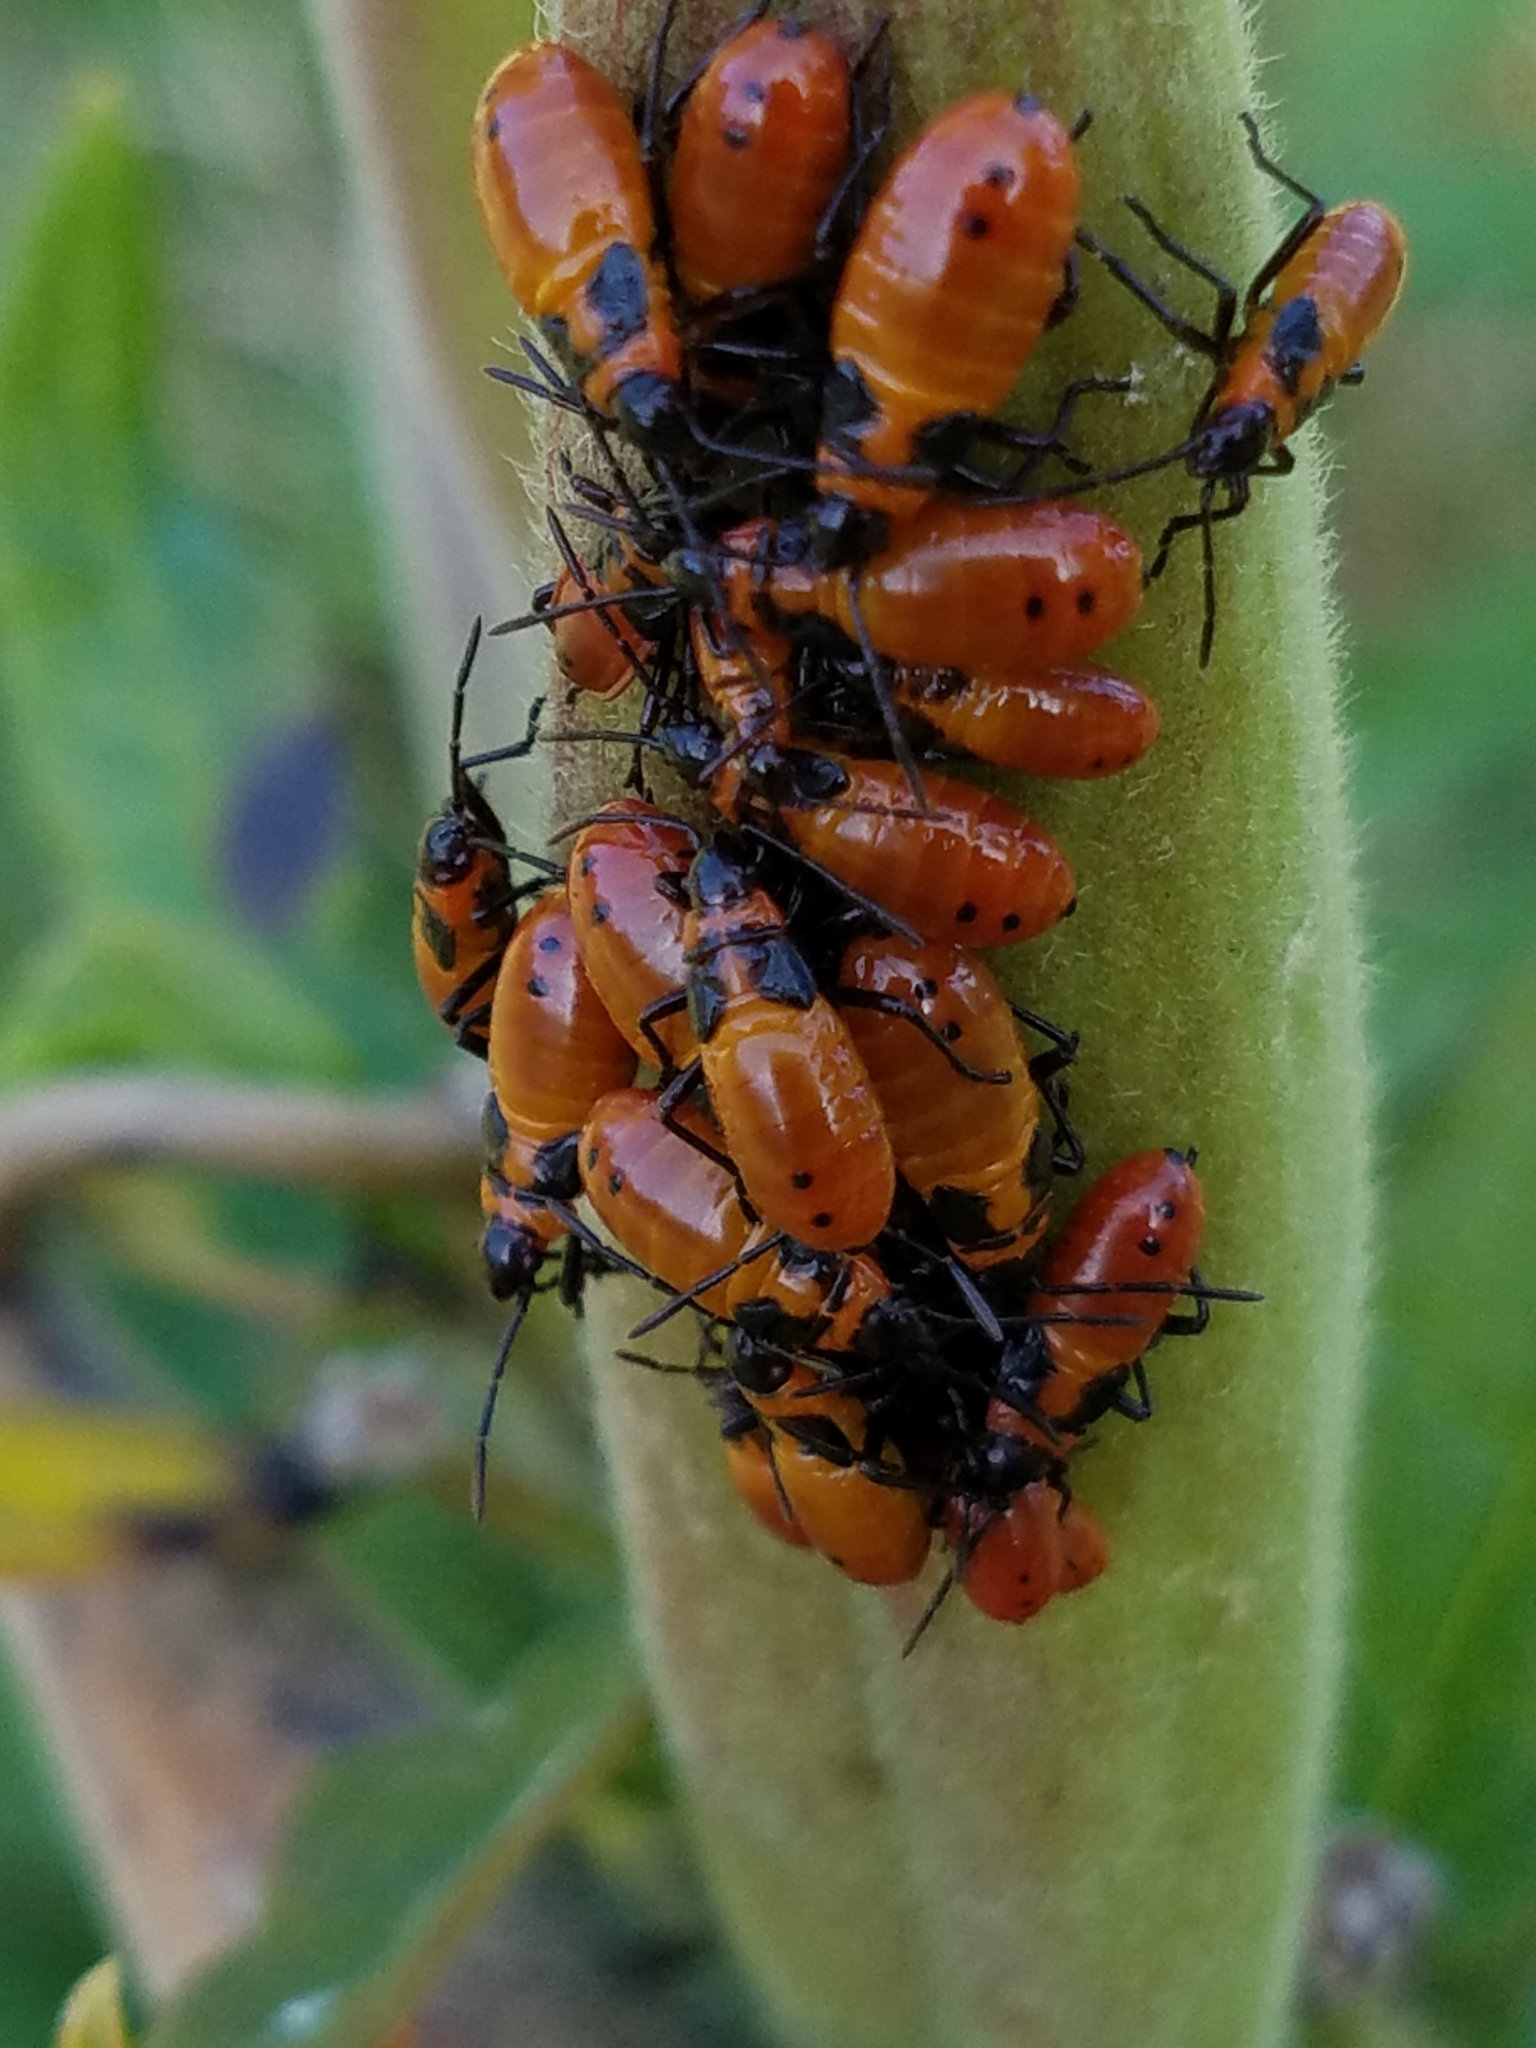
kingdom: Animalia
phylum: Arthropoda
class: Insecta
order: Hemiptera
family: Lygaeidae
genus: Oncopeltus
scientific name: Oncopeltus fasciatus
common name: Large milkweed bug
